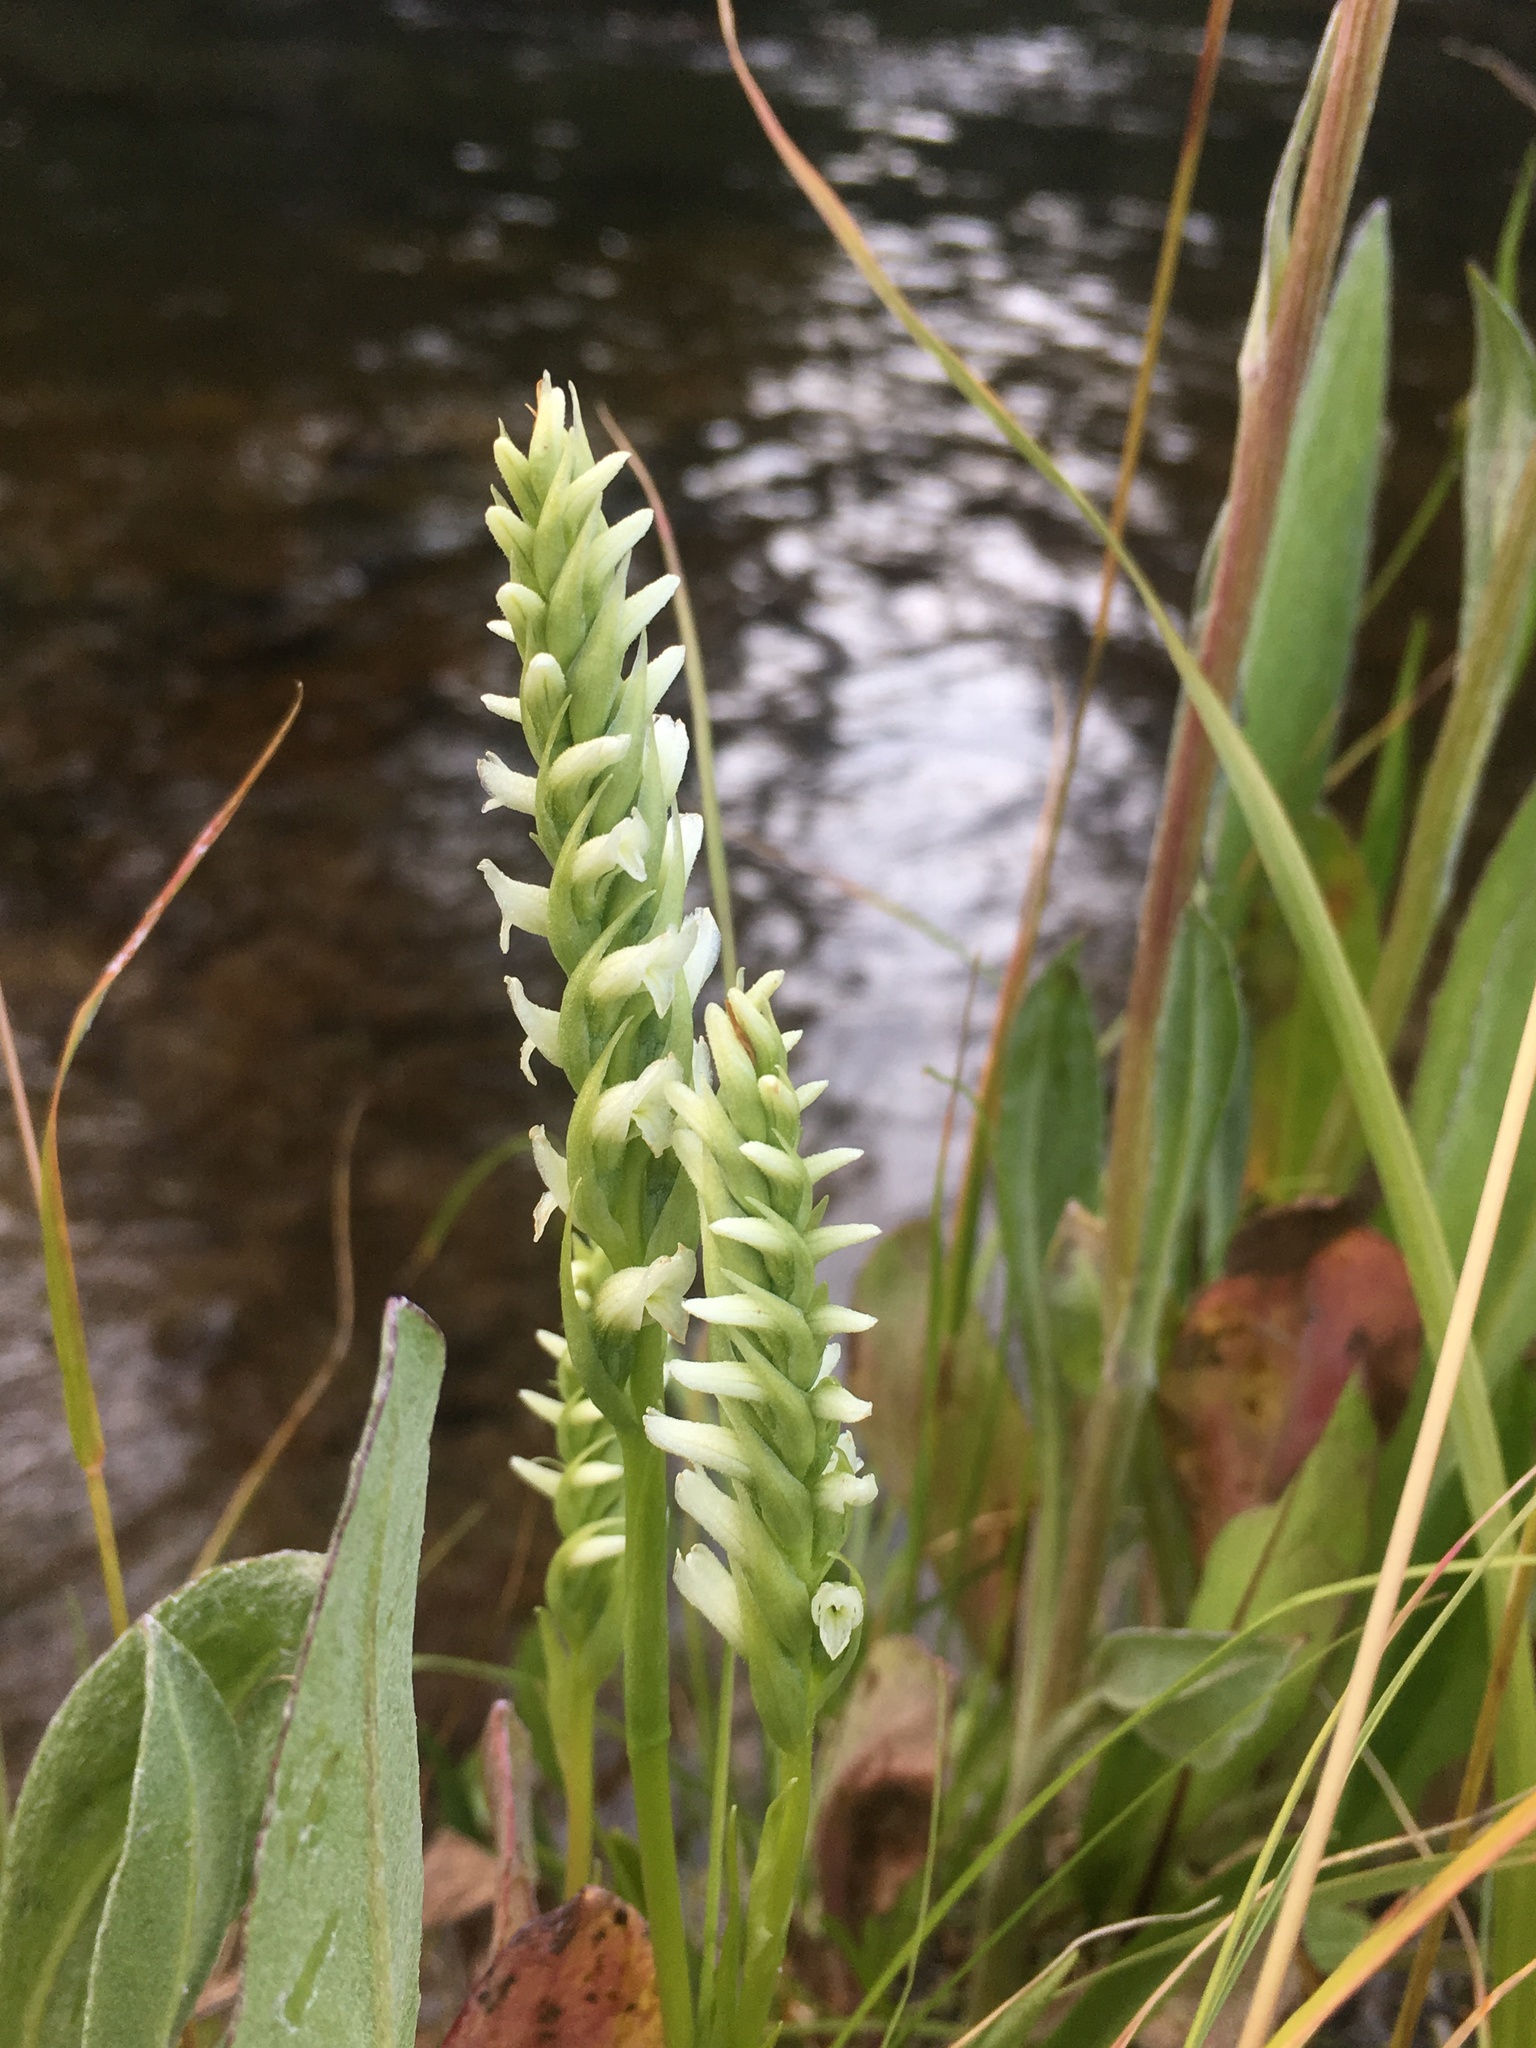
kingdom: Plantae
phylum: Tracheophyta
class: Liliopsida
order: Asparagales
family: Orchidaceae
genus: Spiranthes
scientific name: Spiranthes romanzoffiana
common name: Irish lady's-tresses
